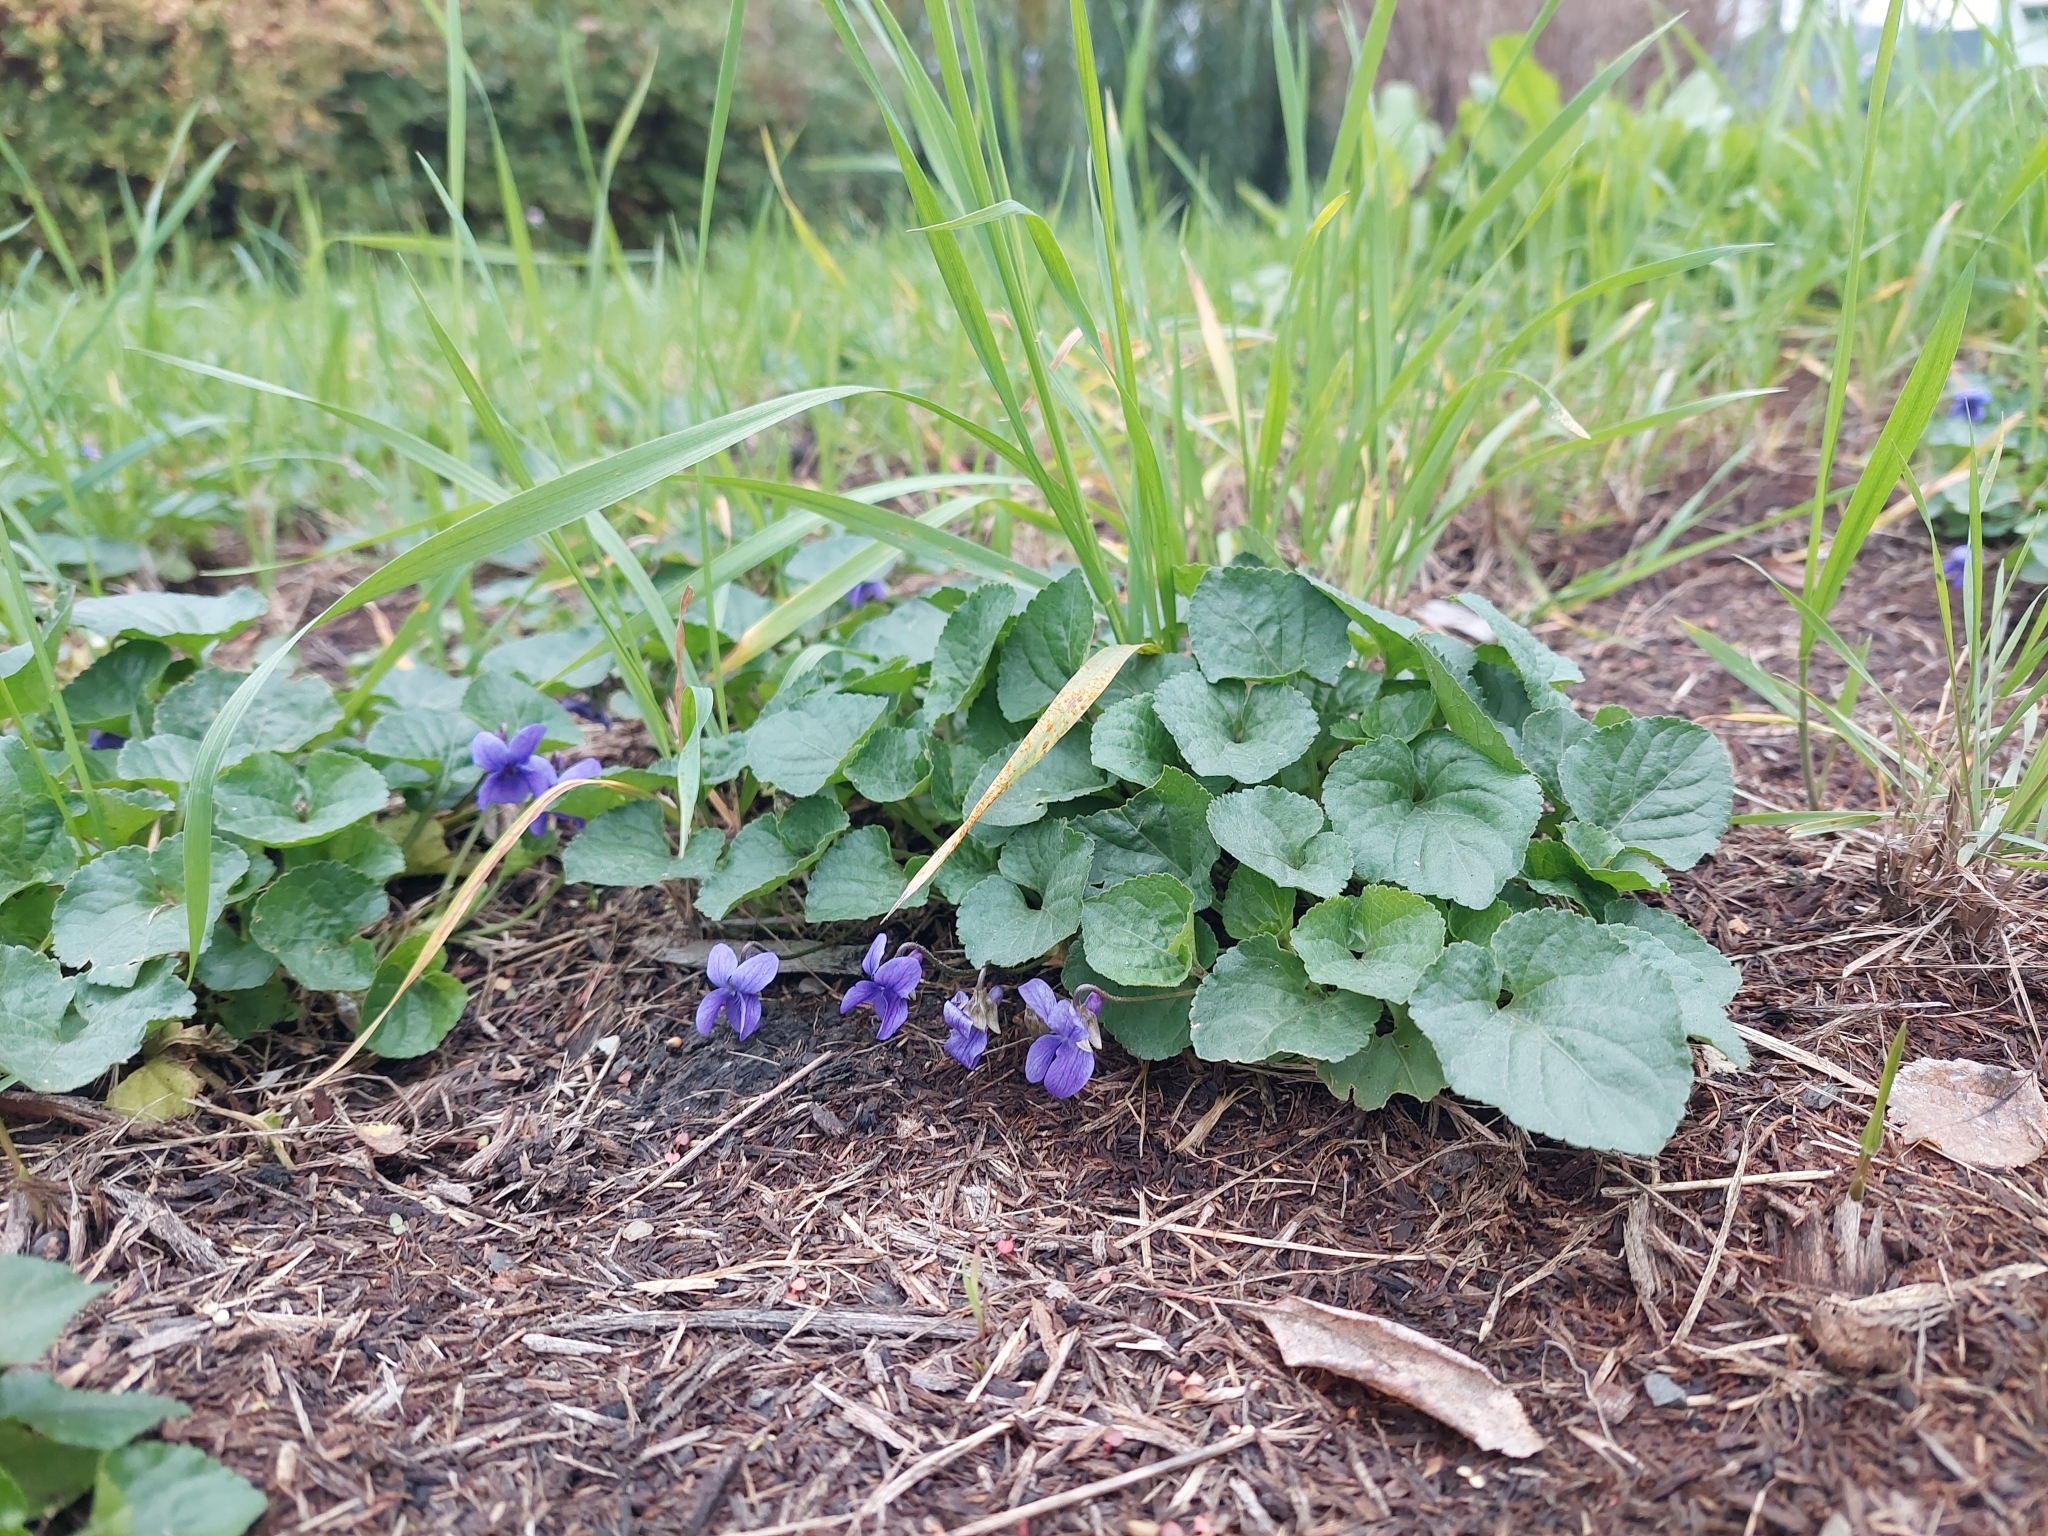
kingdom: Plantae
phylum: Tracheophyta
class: Magnoliopsida
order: Malpighiales
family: Violaceae
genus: Viola
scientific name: Viola odorata
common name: Sweet violet
